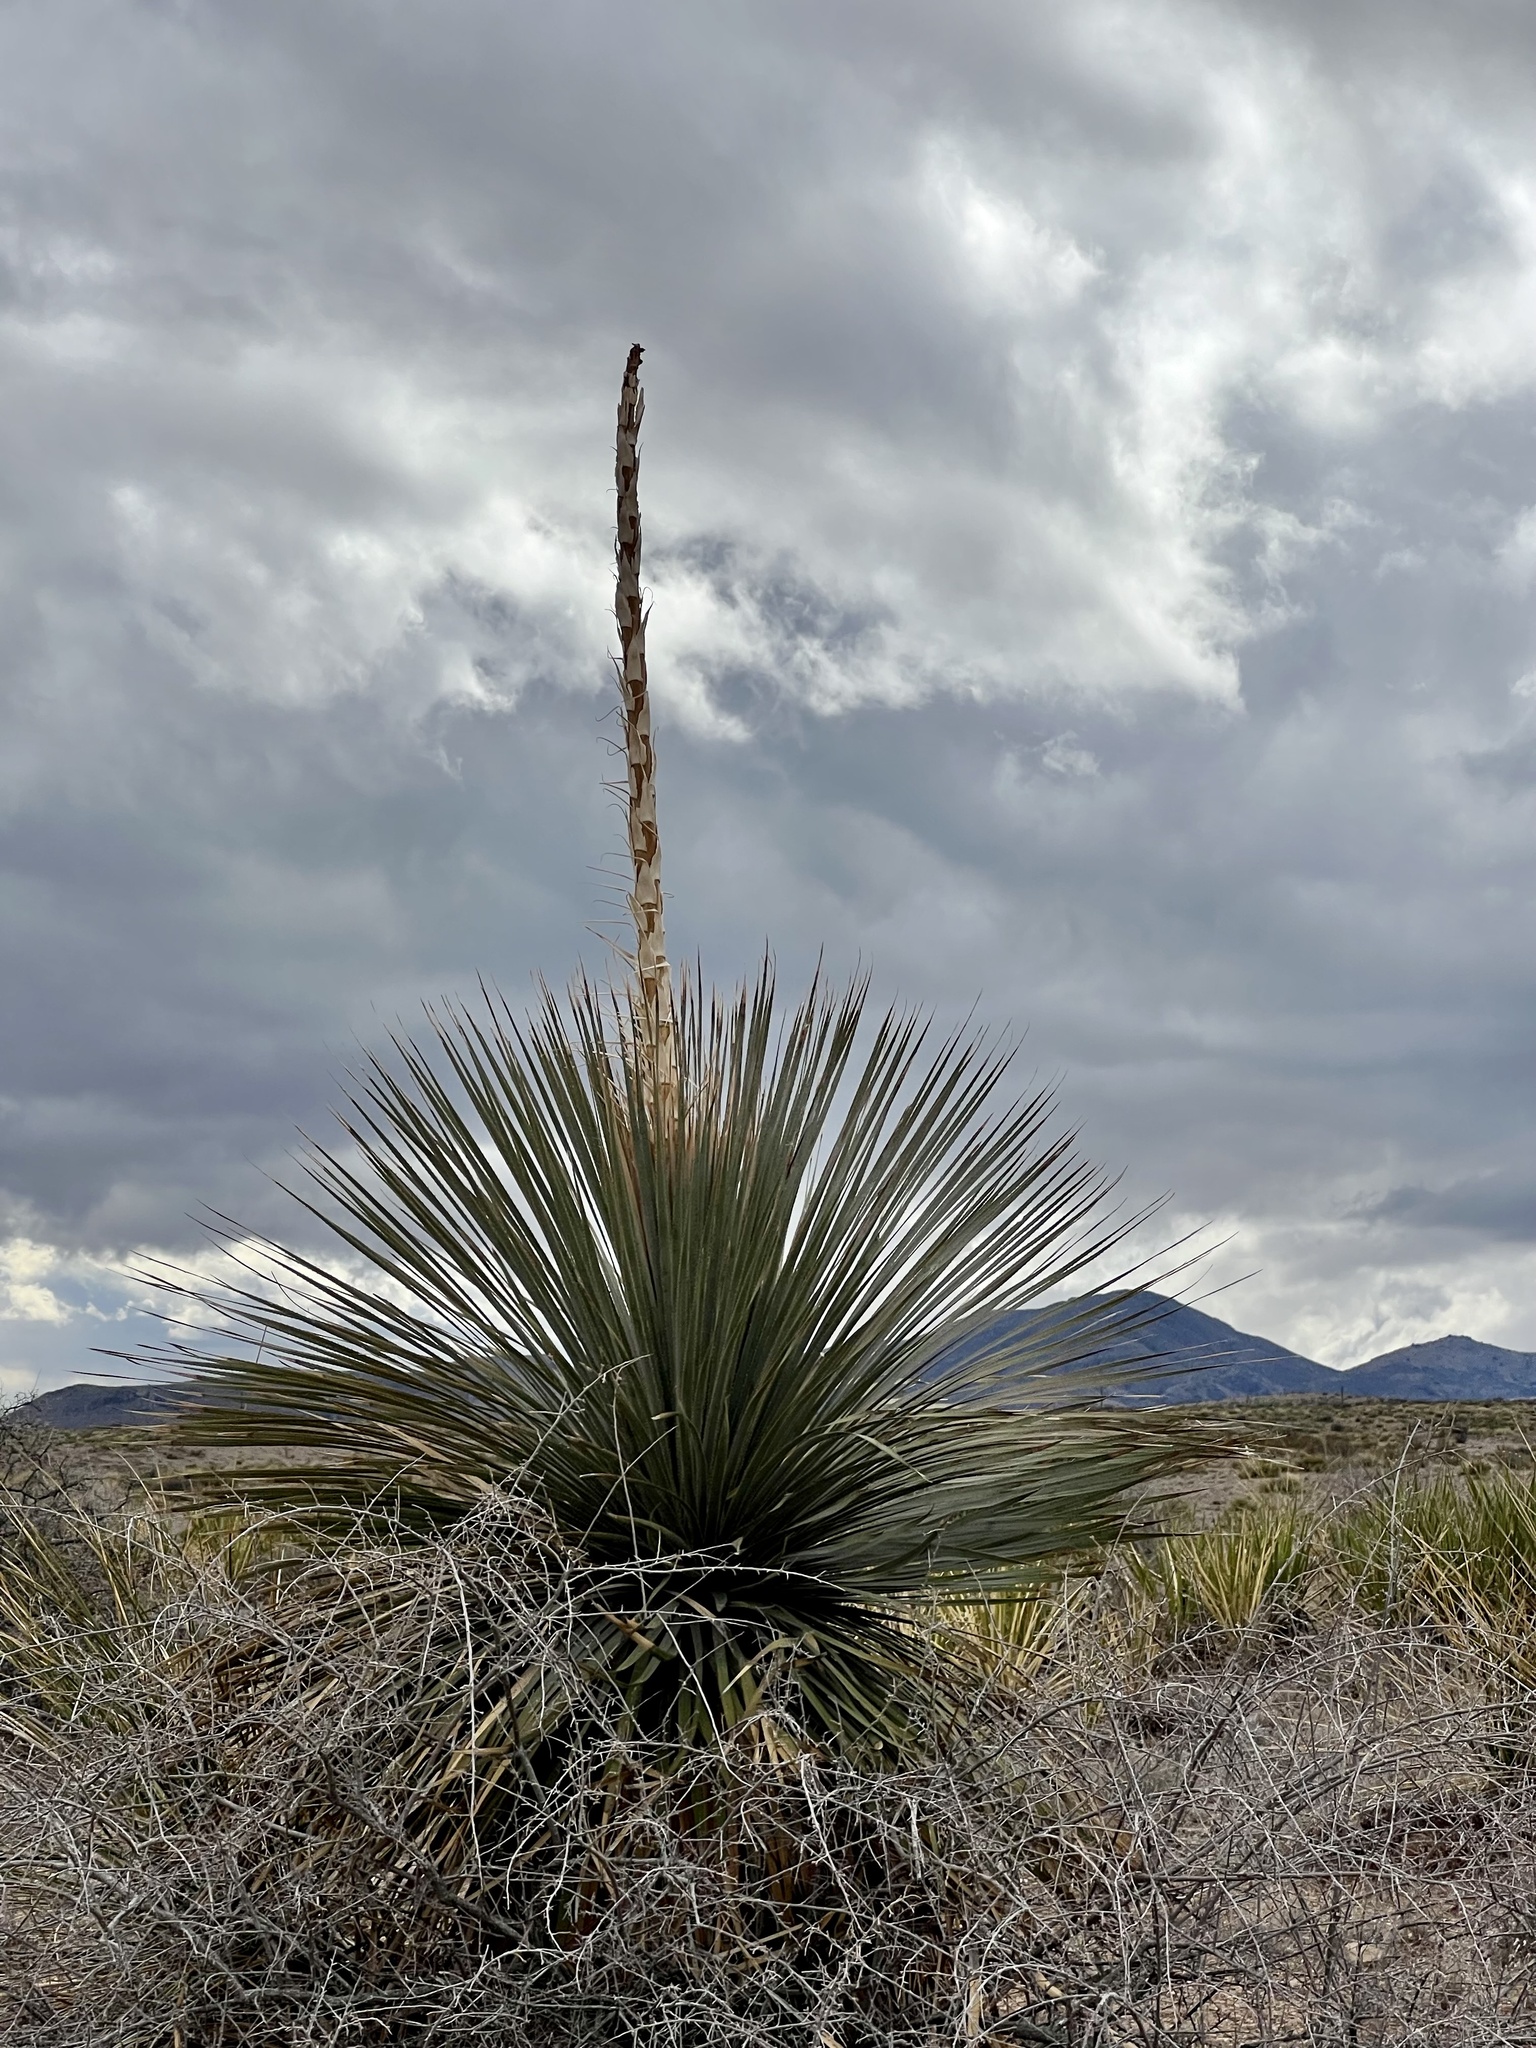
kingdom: Plantae
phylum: Tracheophyta
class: Liliopsida
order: Asparagales
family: Asparagaceae
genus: Dasylirion
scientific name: Dasylirion wheeleri
